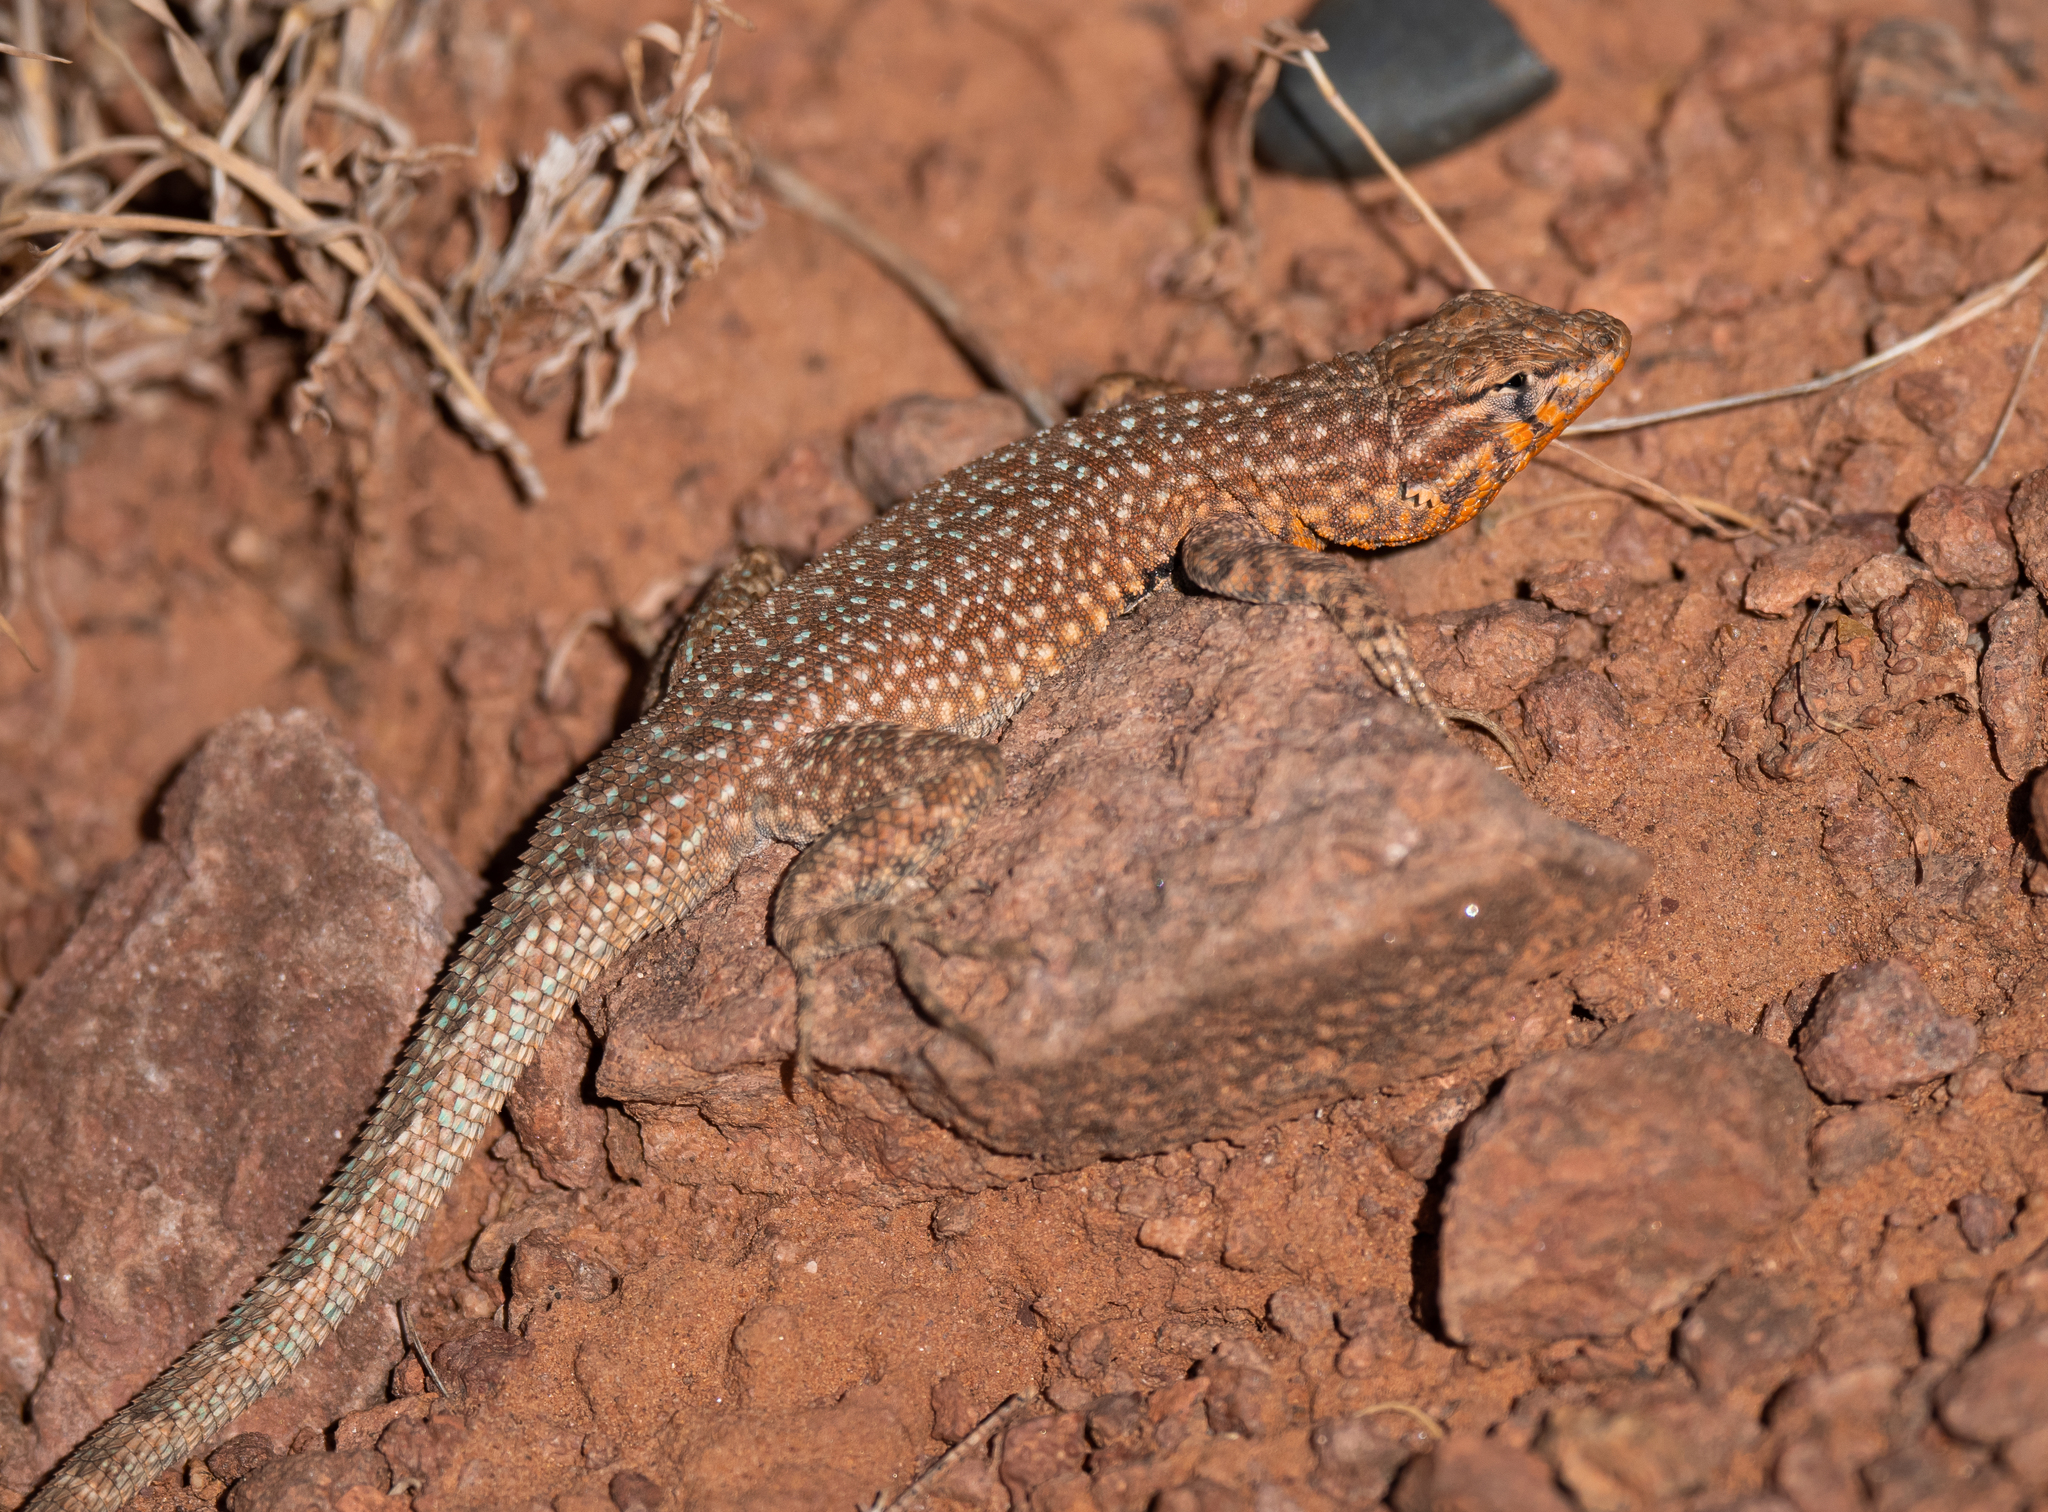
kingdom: Animalia
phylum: Chordata
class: Squamata
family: Phrynosomatidae
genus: Uta
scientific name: Uta stansburiana
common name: Side-blotched lizard
